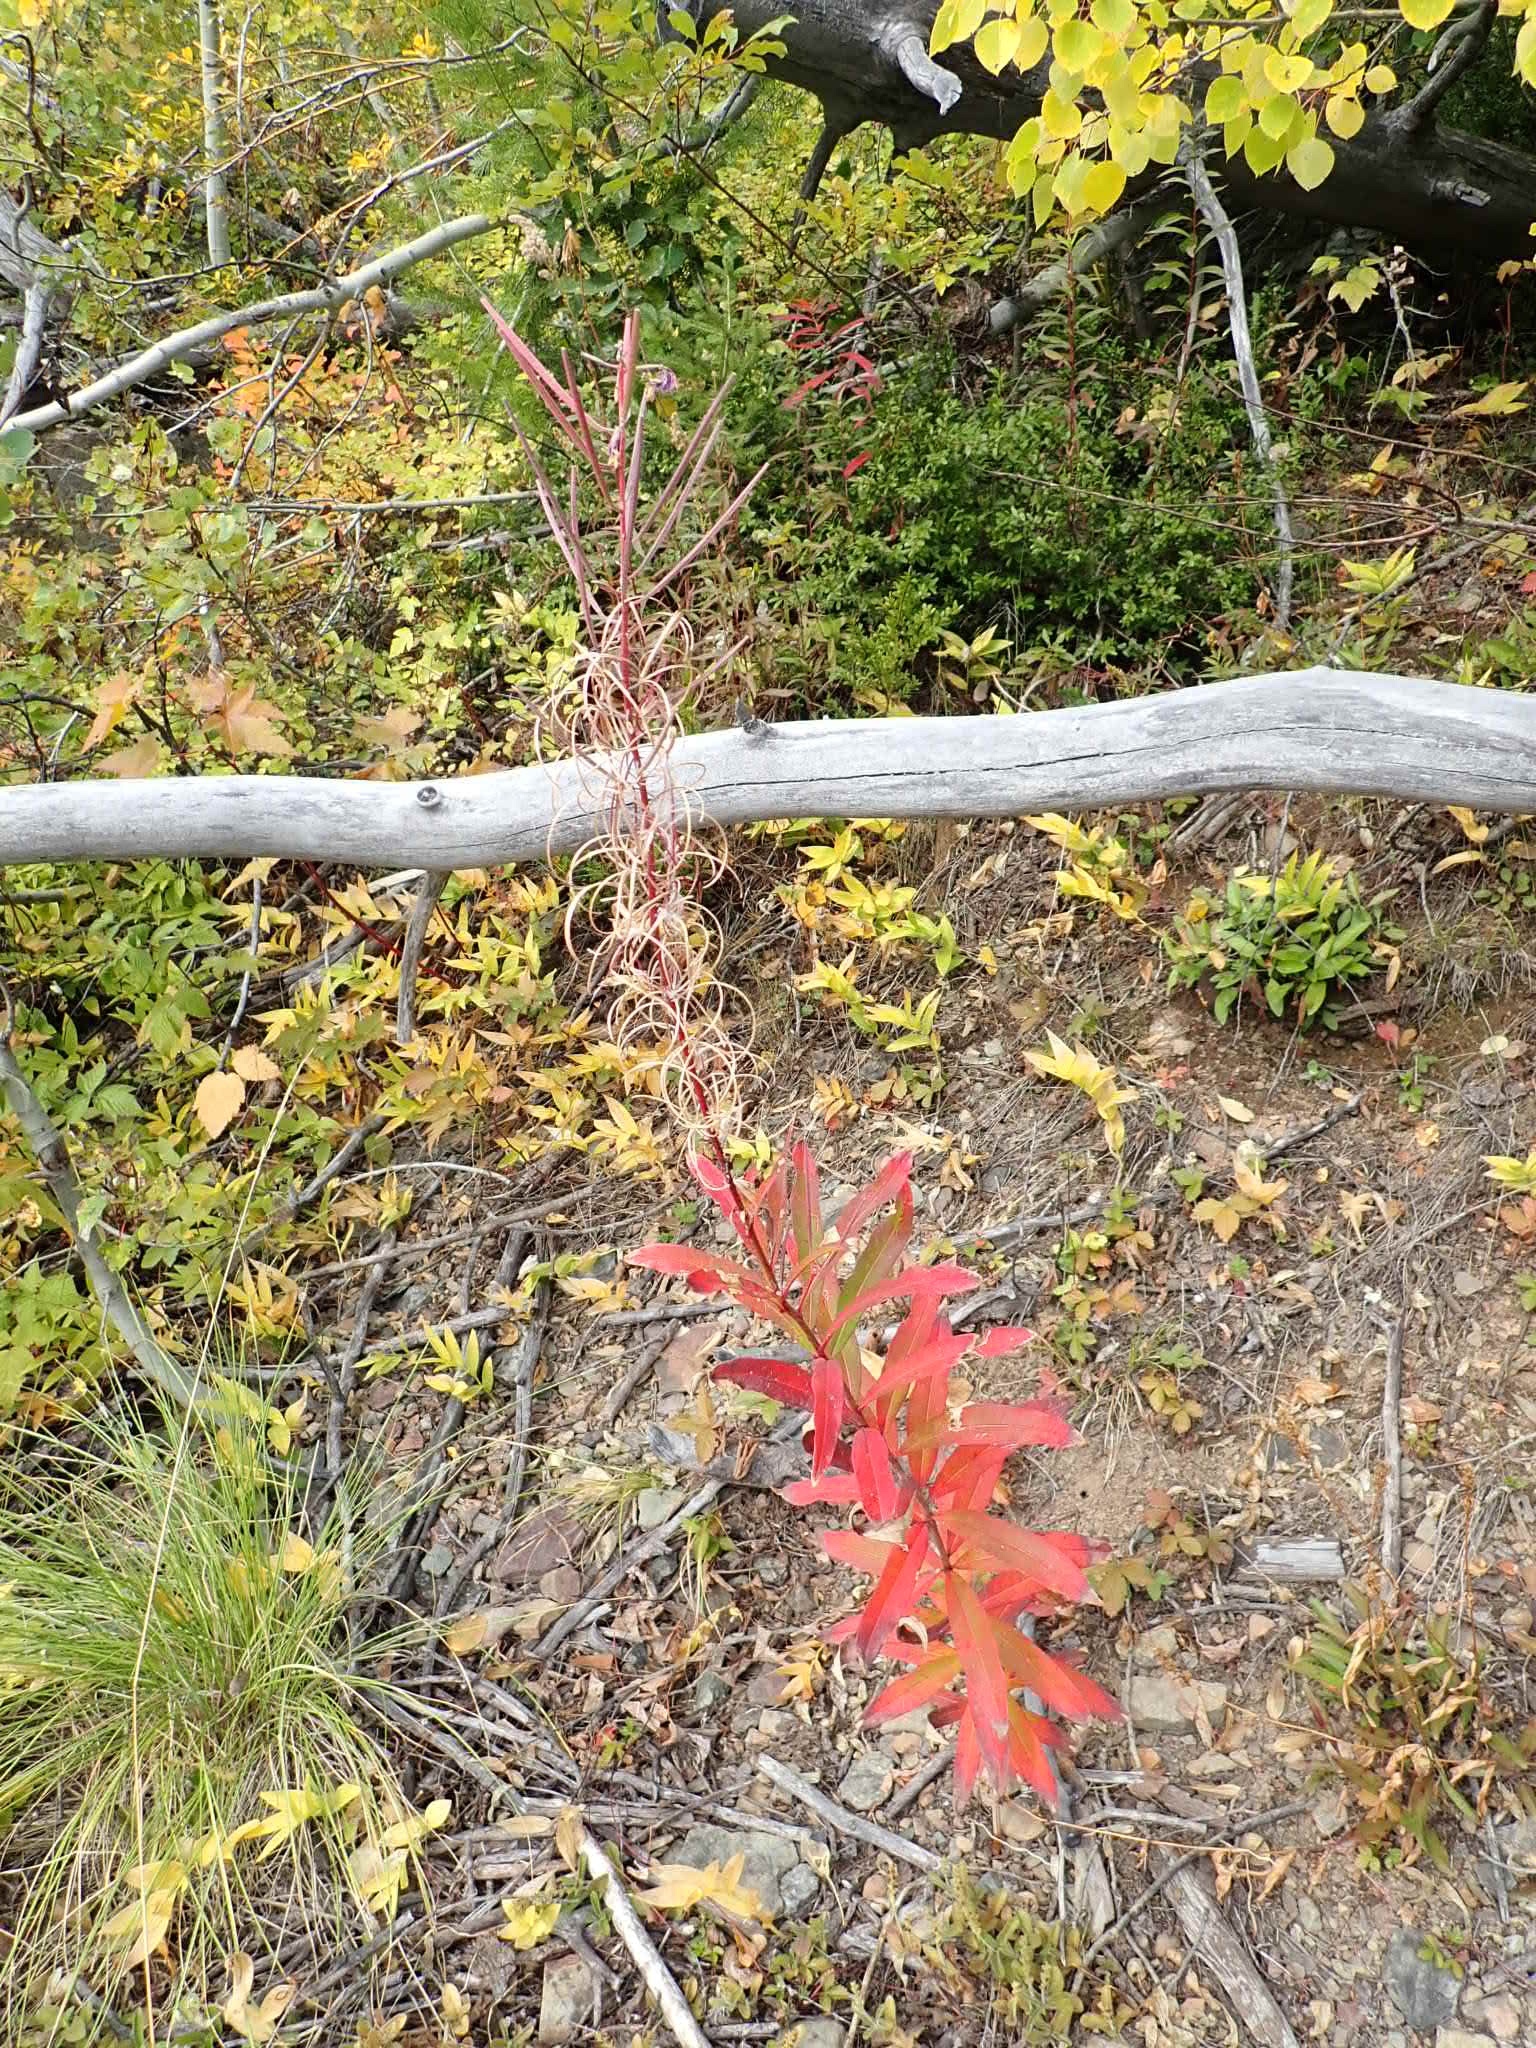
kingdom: Plantae
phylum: Tracheophyta
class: Magnoliopsida
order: Myrtales
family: Onagraceae
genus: Chamaenerion
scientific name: Chamaenerion angustifolium
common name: Fireweed
